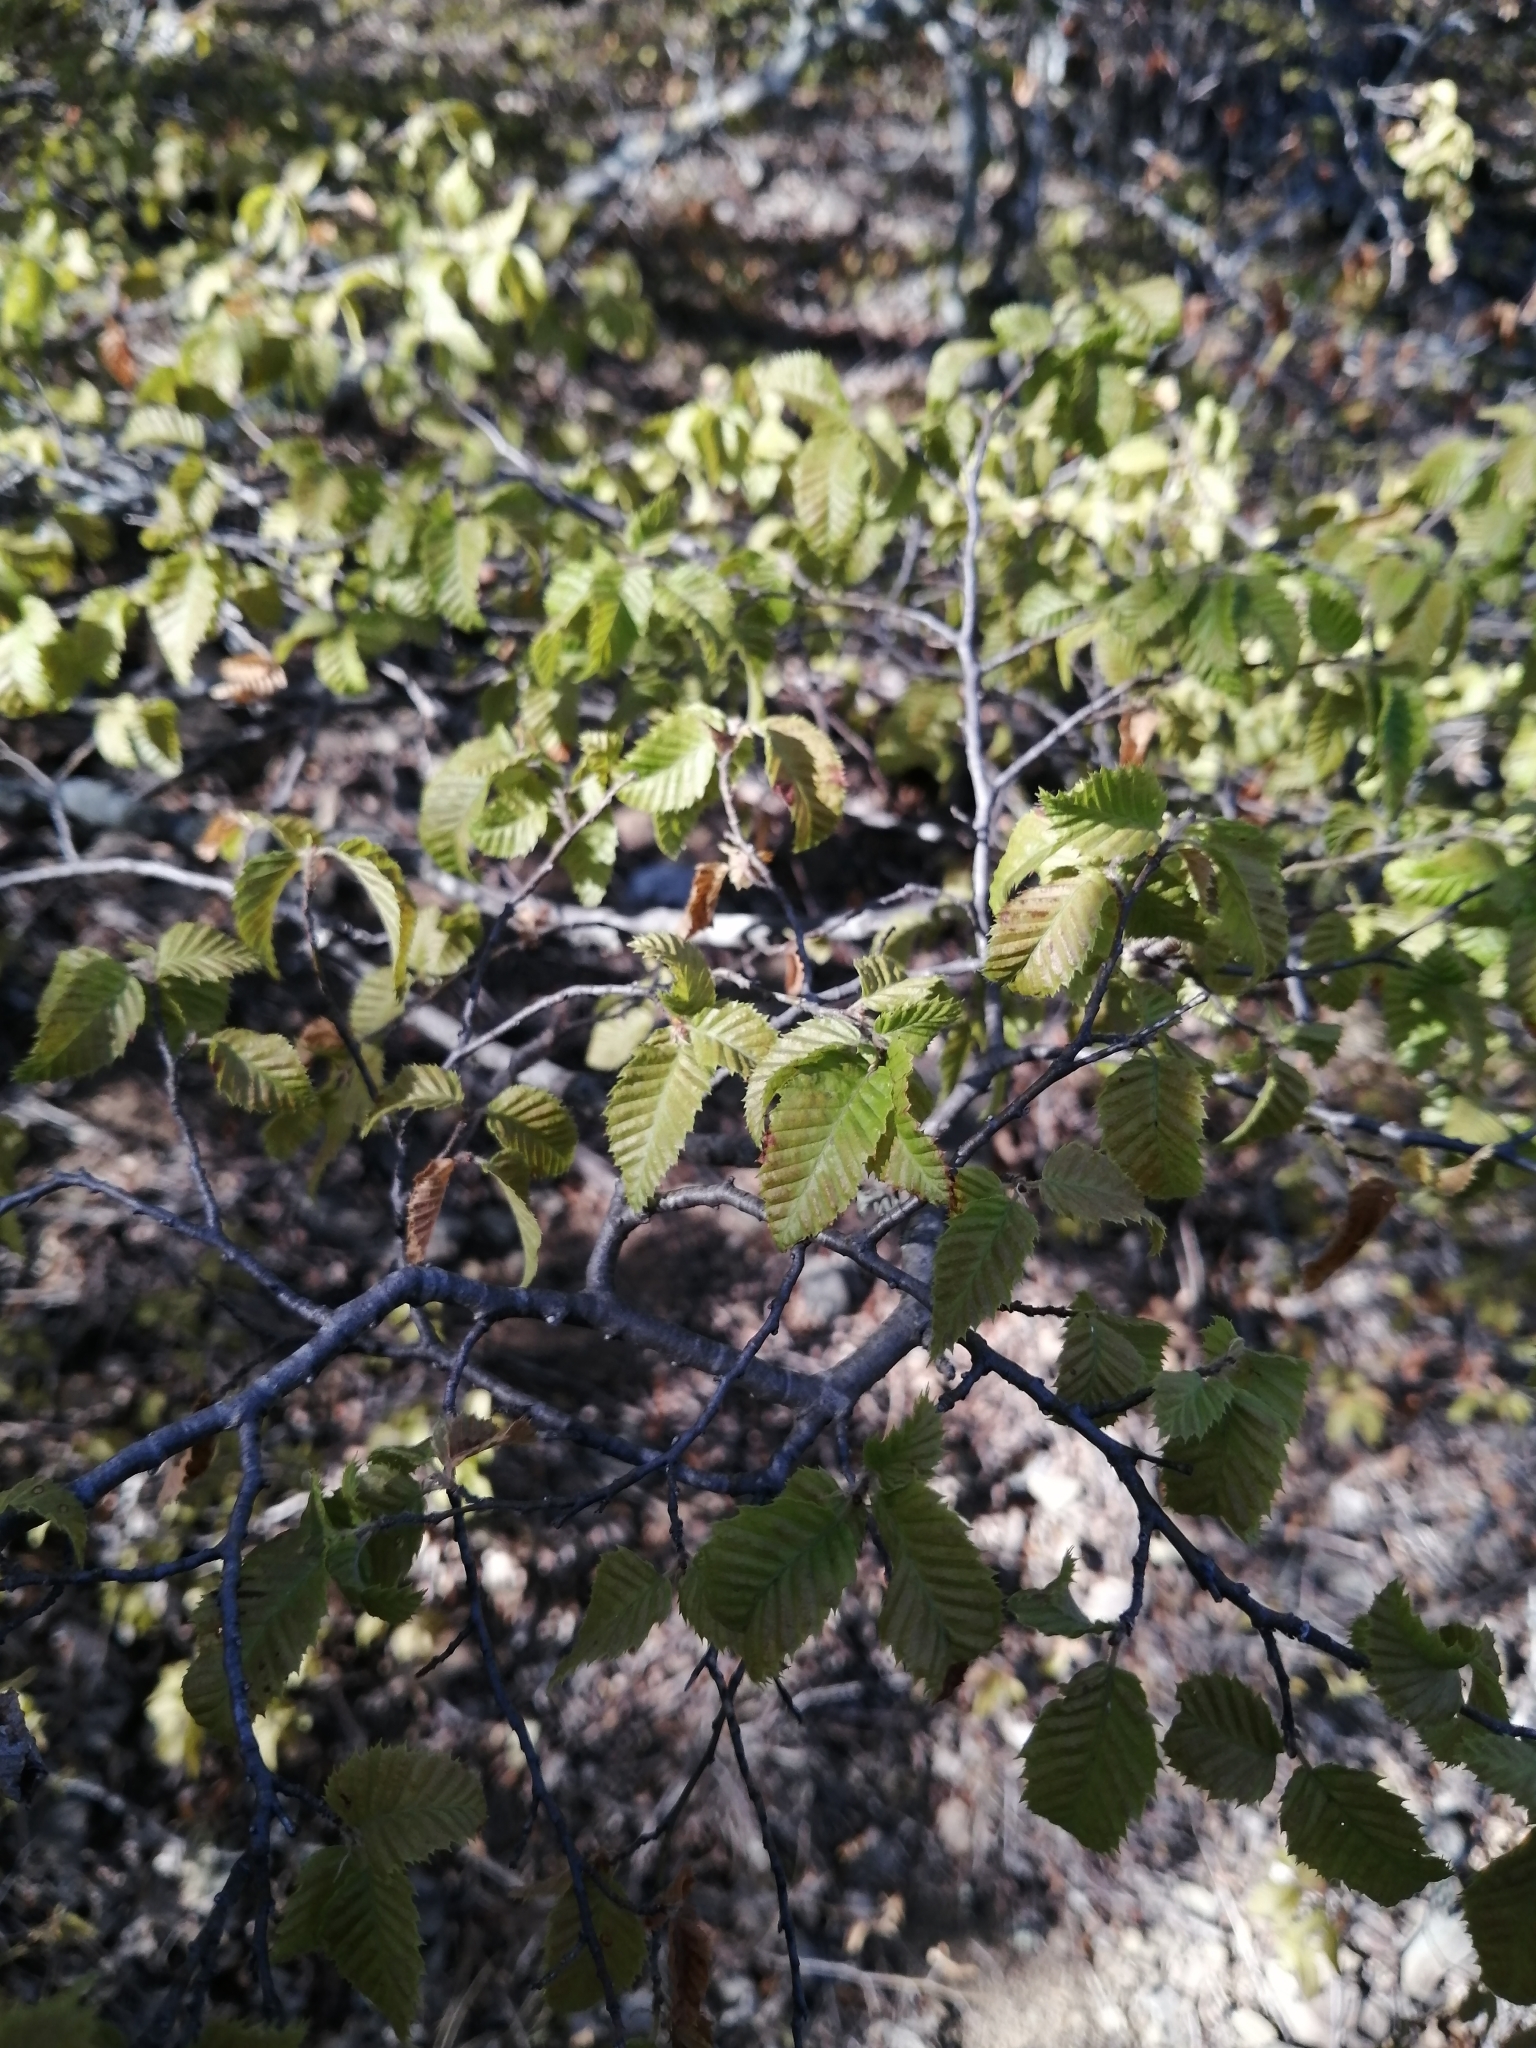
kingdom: Plantae
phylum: Tracheophyta
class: Magnoliopsida
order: Fagales
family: Betulaceae
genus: Carpinus
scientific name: Carpinus orientalis
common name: Eastern hornbeam
